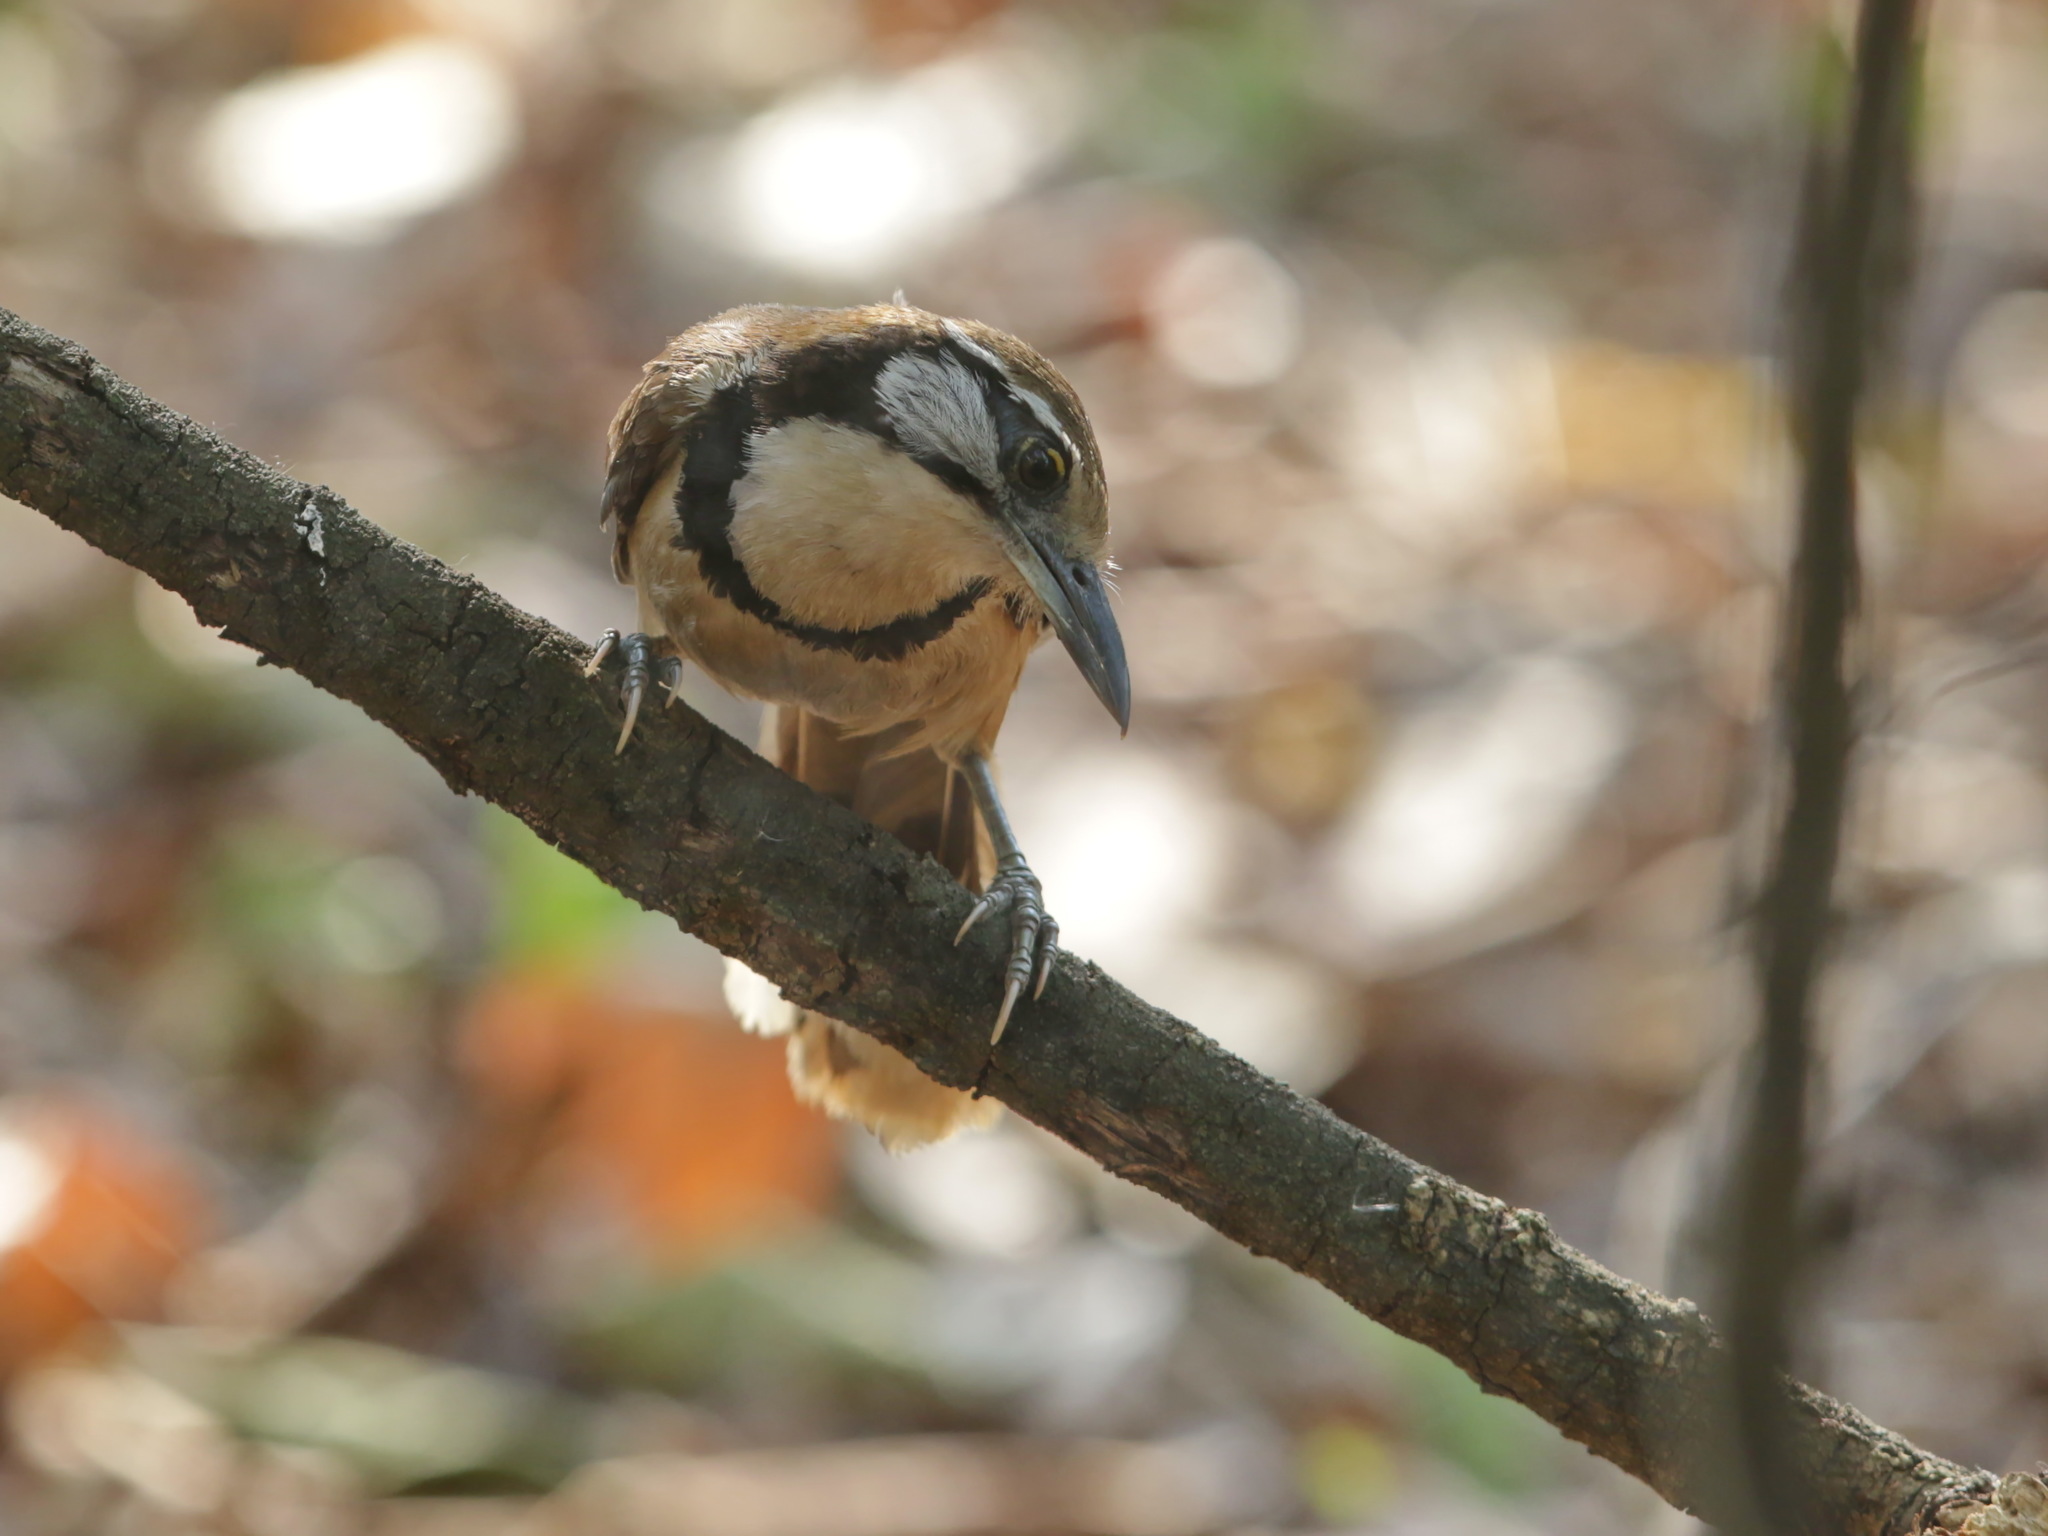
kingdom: Animalia
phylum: Chordata
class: Aves
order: Passeriformes
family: Leiothrichidae
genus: Garrulax
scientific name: Garrulax pectoralis
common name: Greater necklaced laughingthrush
